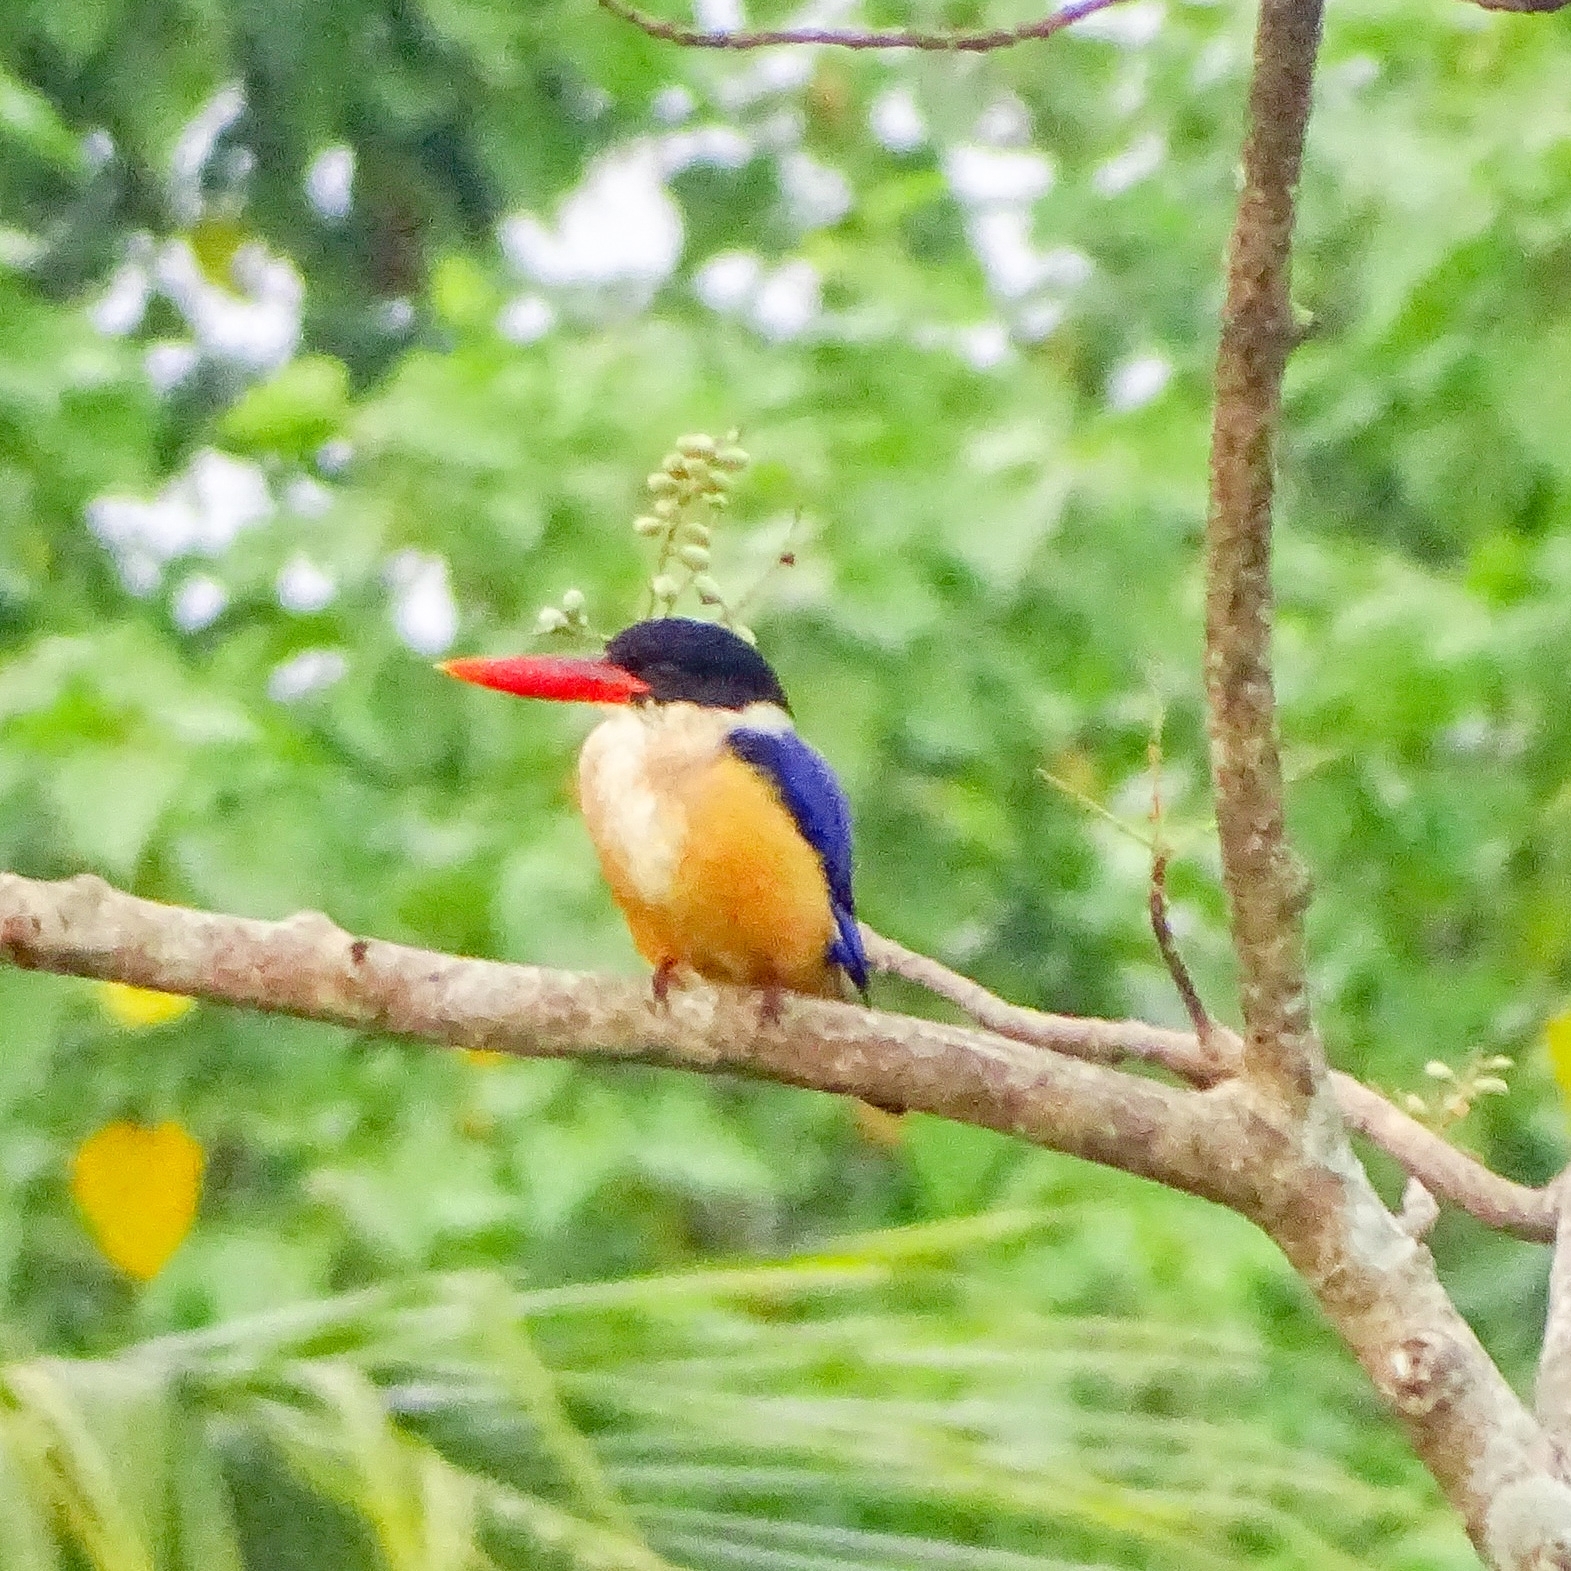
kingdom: Animalia
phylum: Chordata
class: Aves
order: Coraciiformes
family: Alcedinidae
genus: Halcyon
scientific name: Halcyon pileata
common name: Black-capped kingfisher
